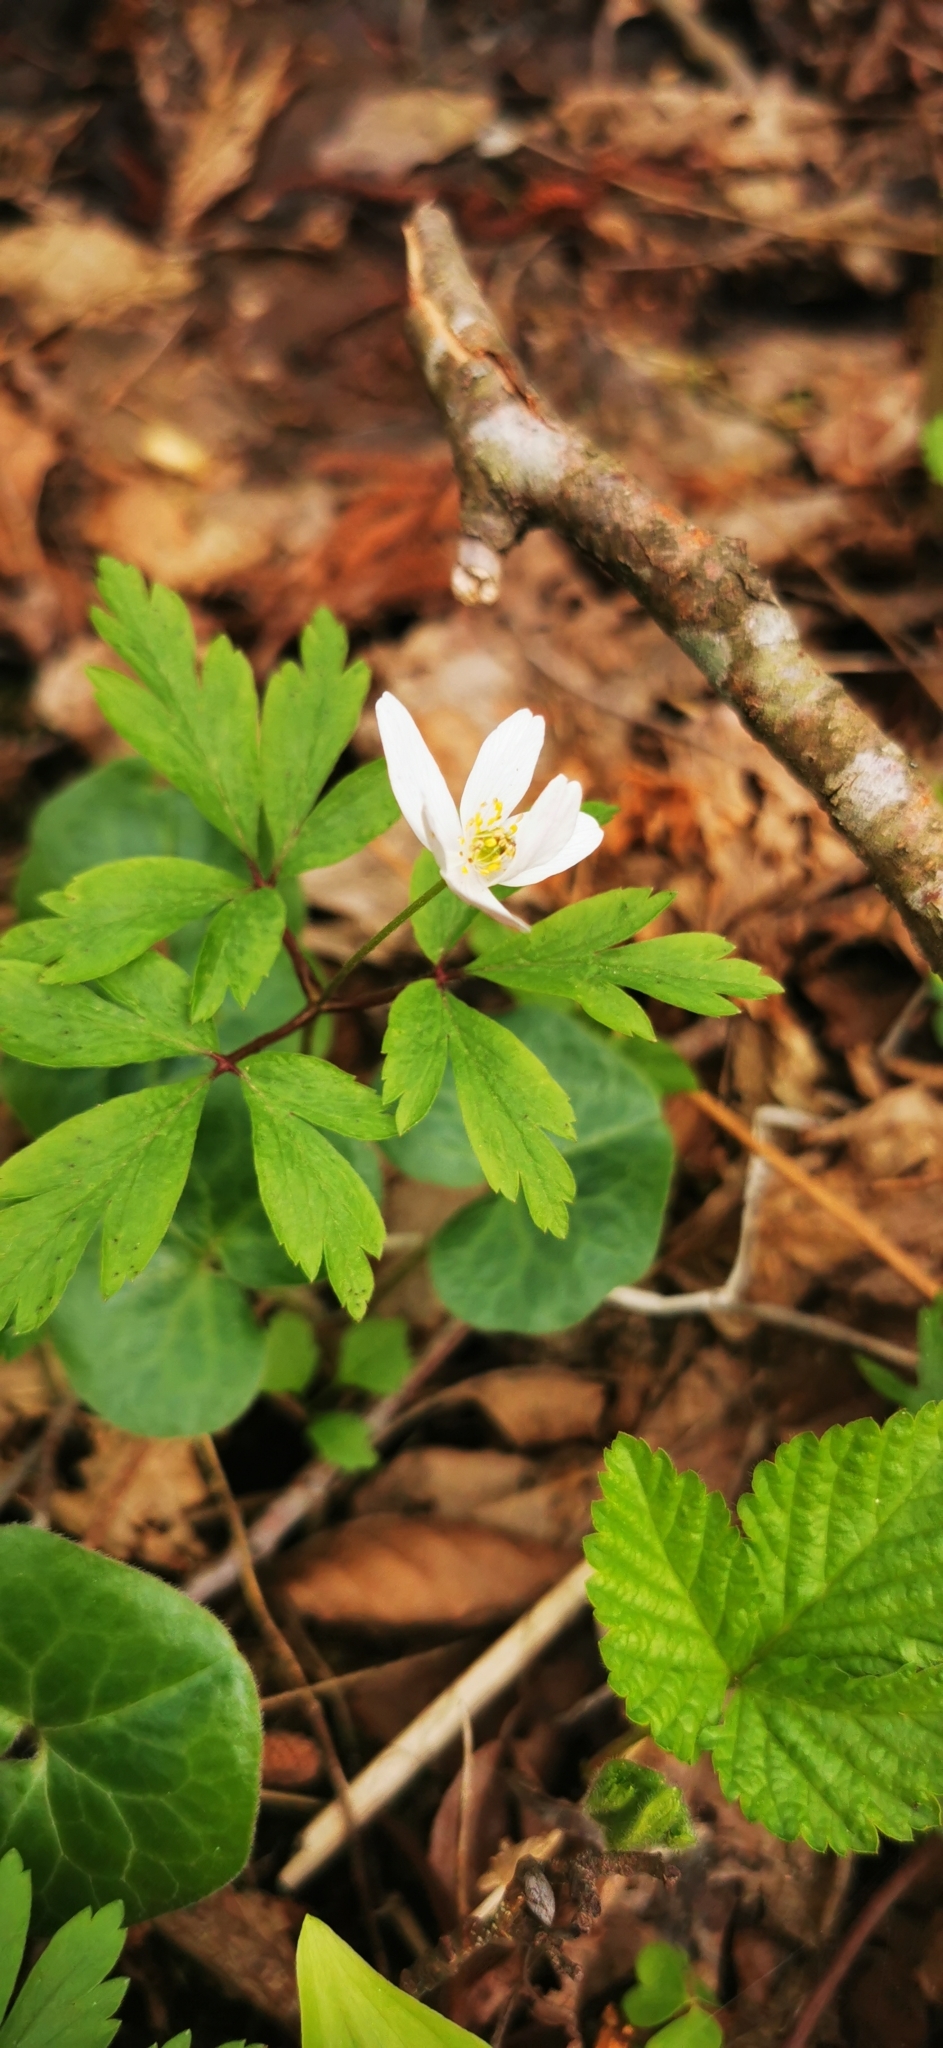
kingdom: Plantae
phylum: Tracheophyta
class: Magnoliopsida
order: Ranunculales
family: Ranunculaceae
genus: Anemone
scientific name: Anemone nemorosa
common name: Wood anemone
